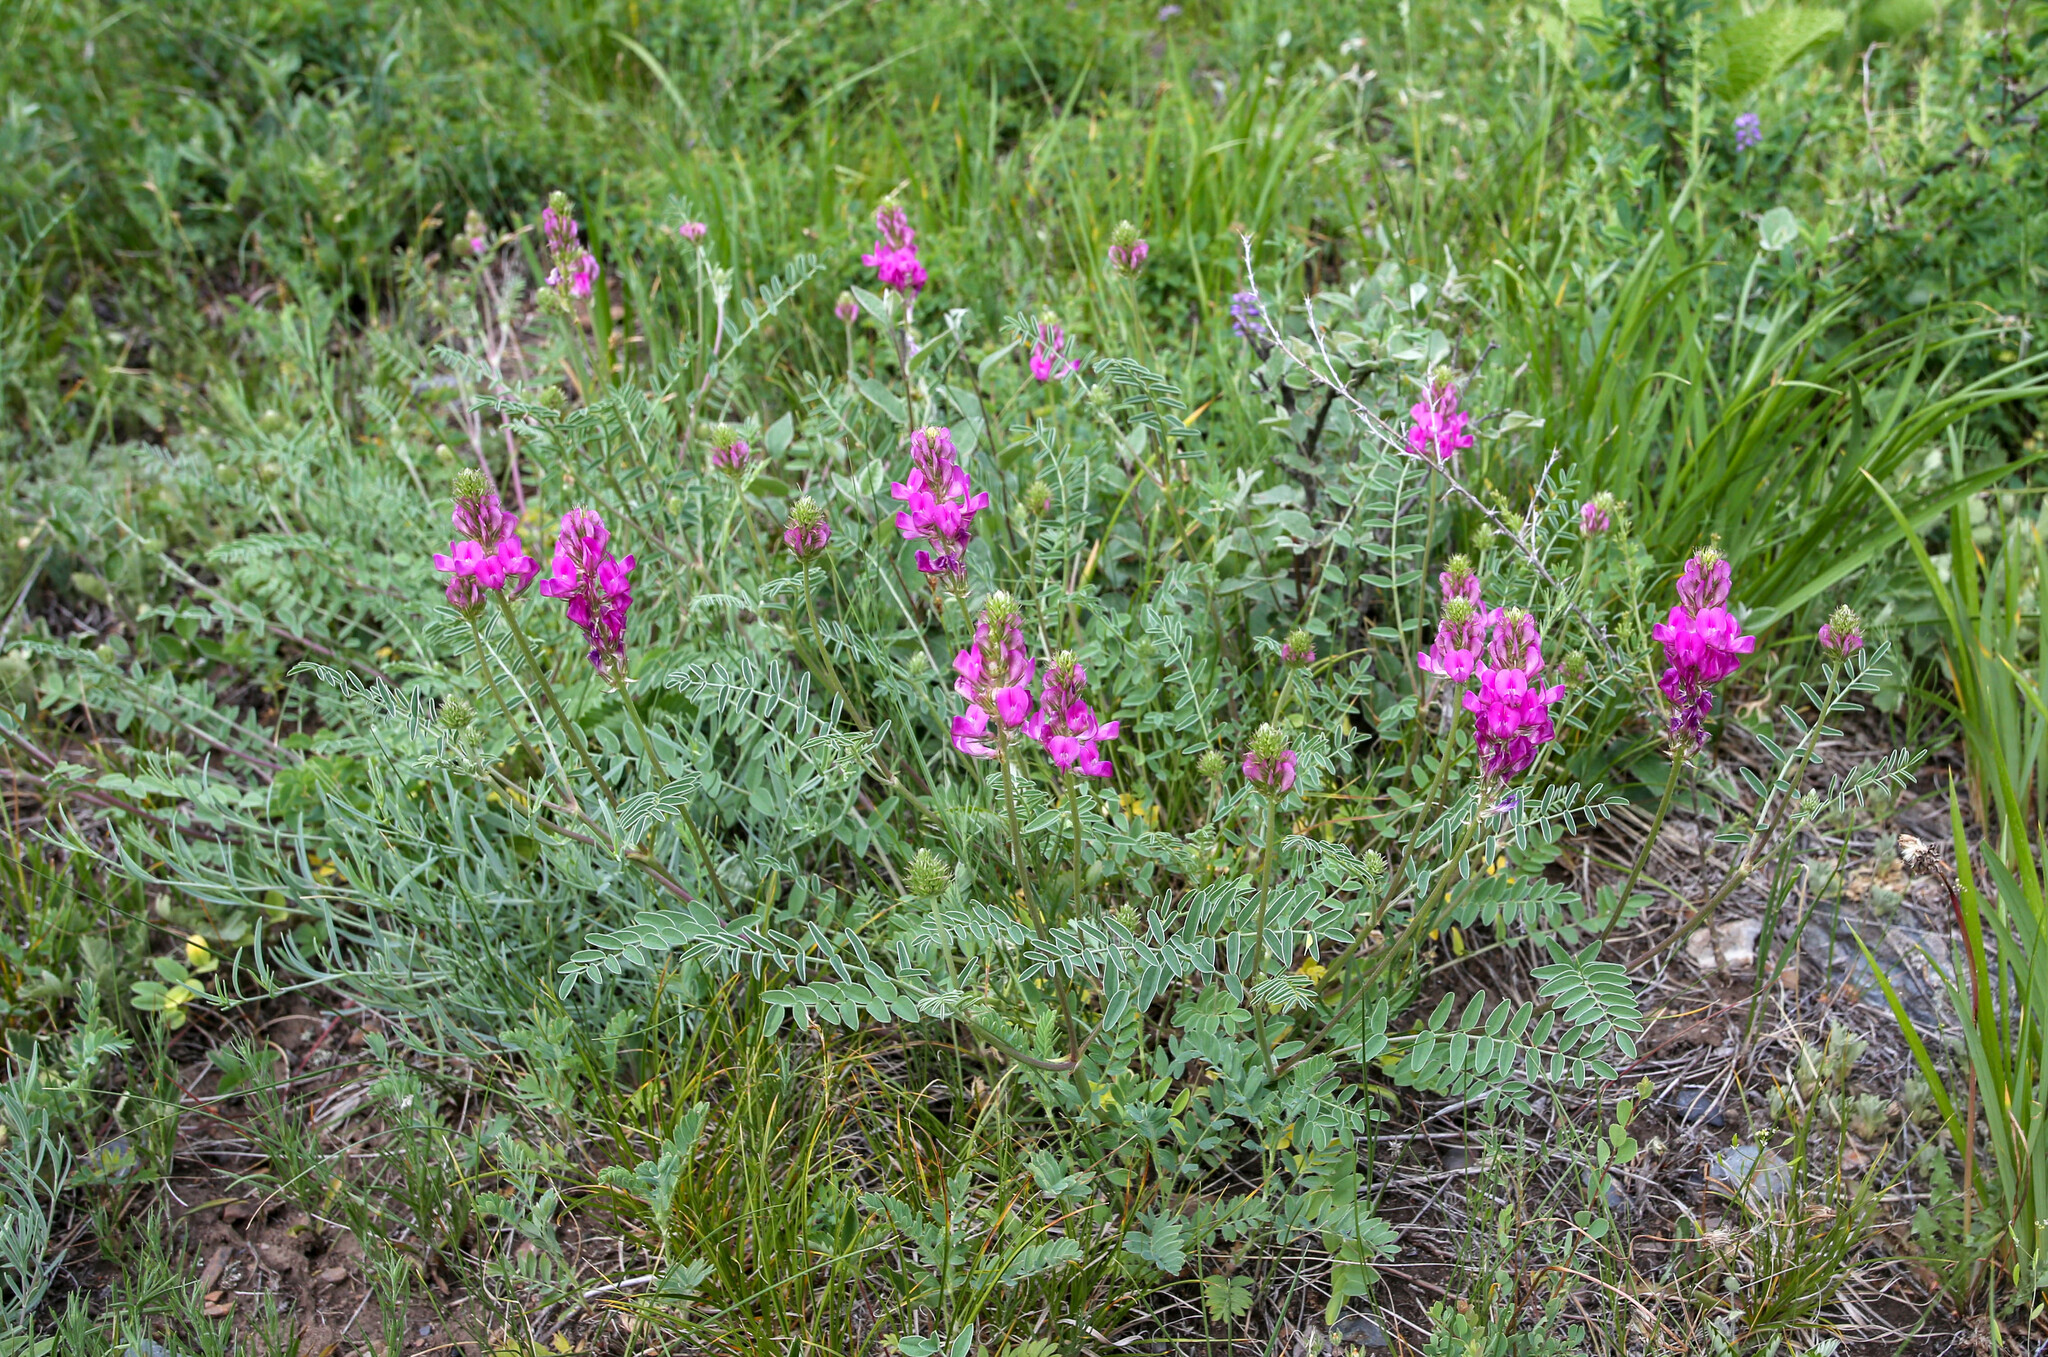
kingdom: Plantae
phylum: Tracheophyta
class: Magnoliopsida
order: Fabales
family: Fabaceae
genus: Hedysarum
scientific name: Hedysarum gmelinii
